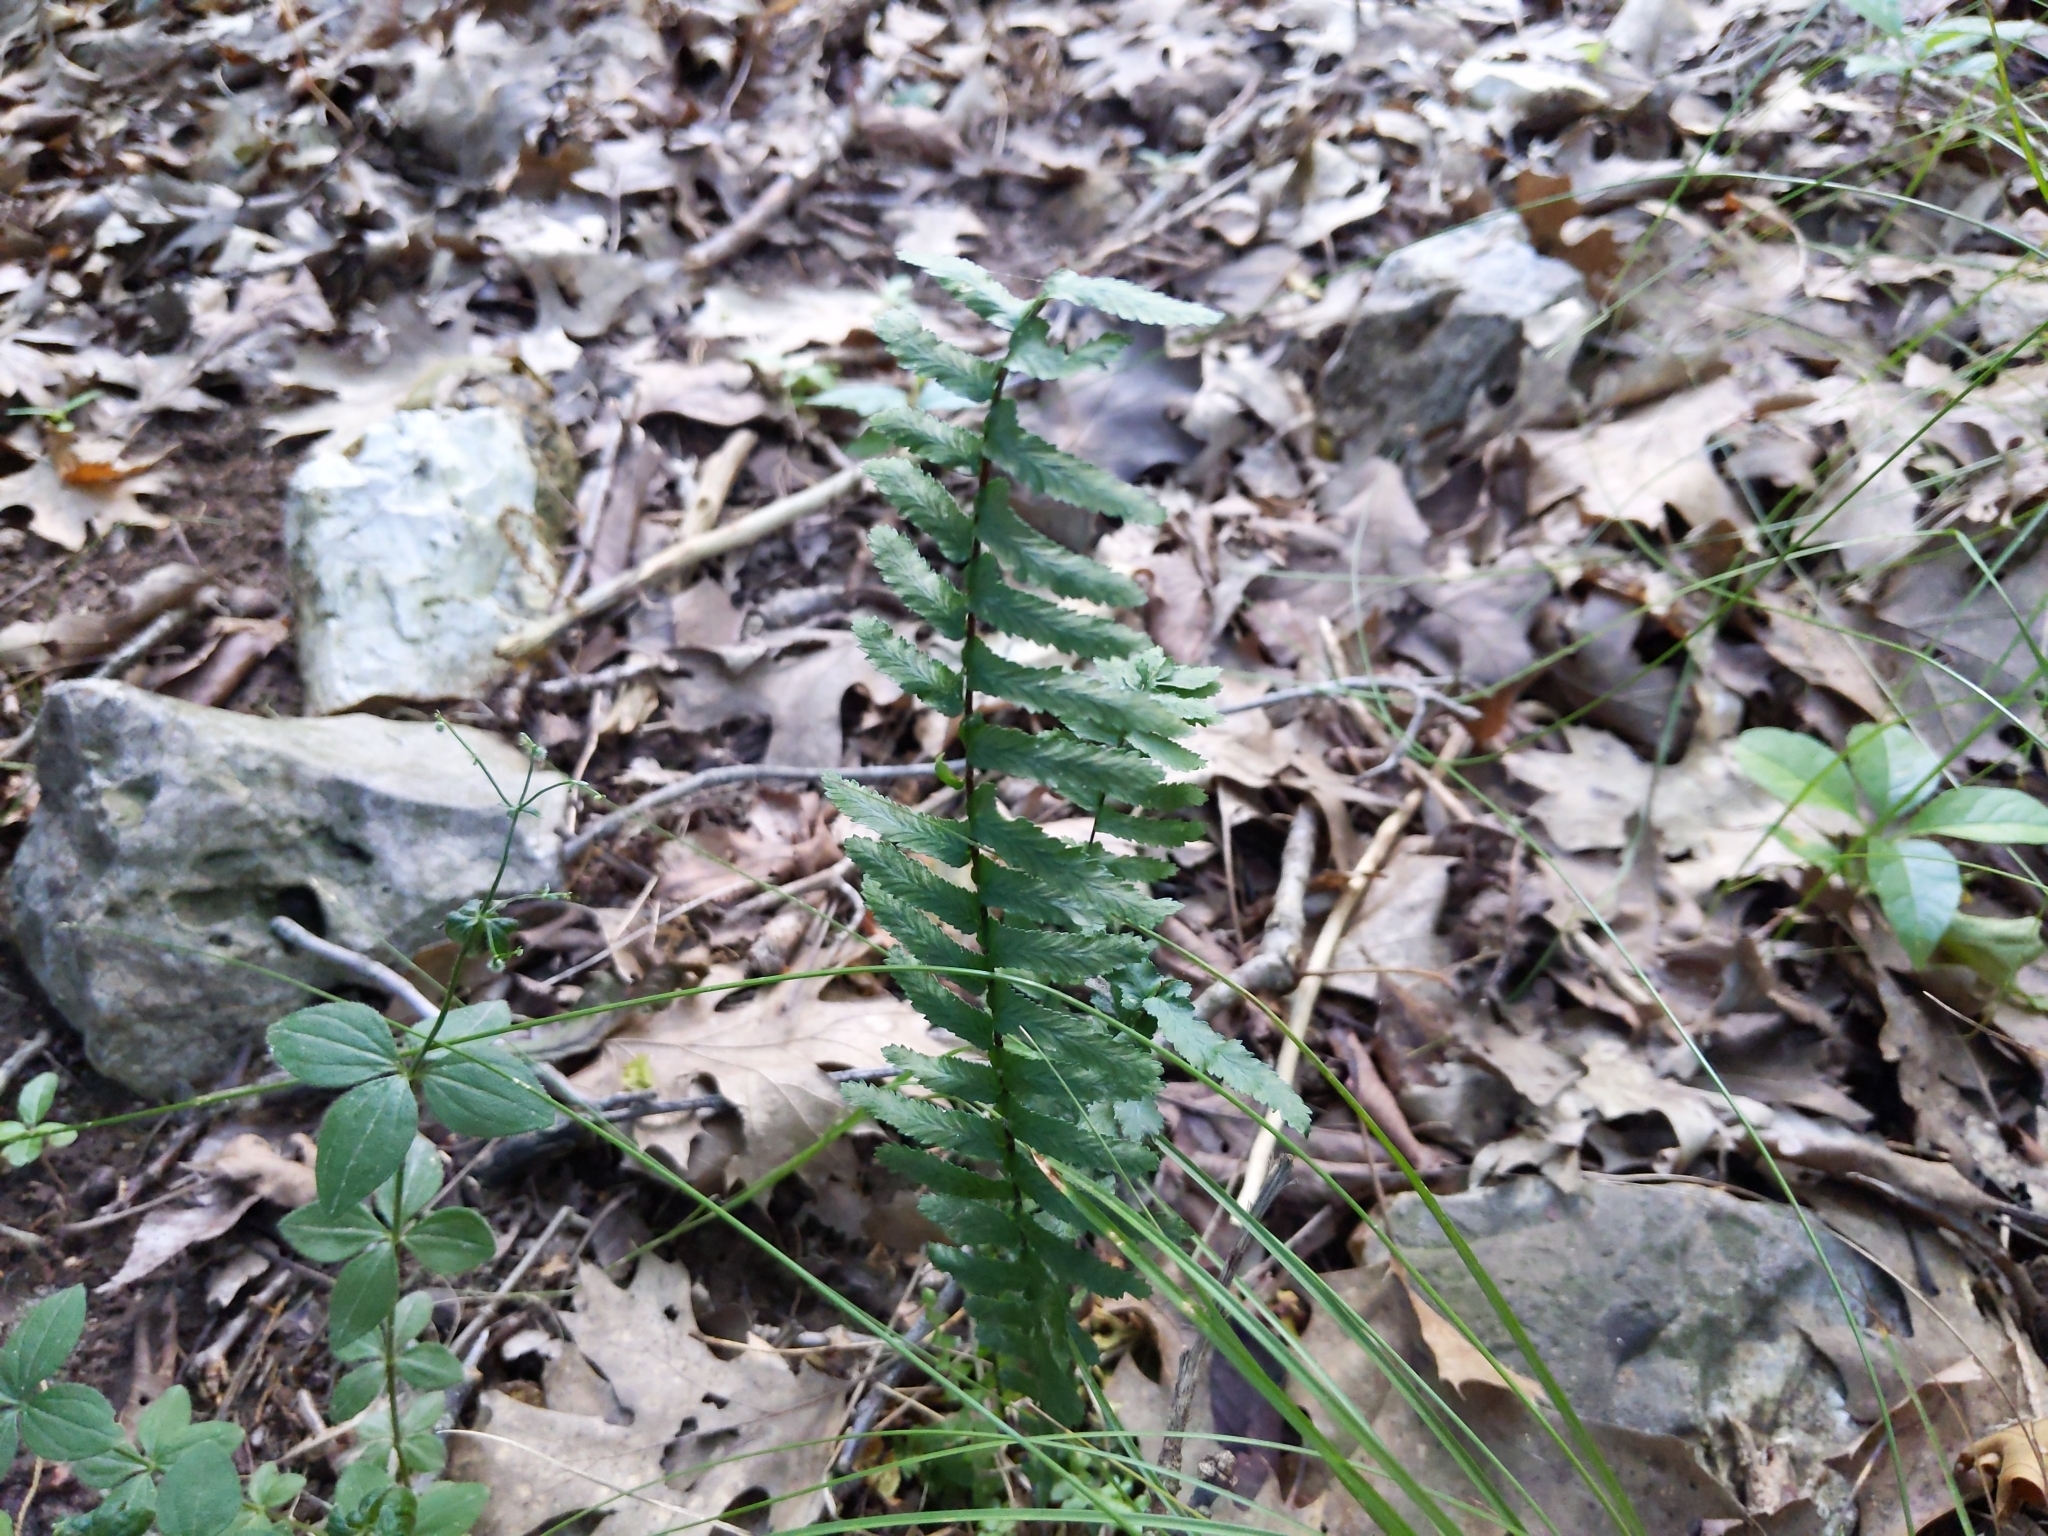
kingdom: Plantae
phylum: Tracheophyta
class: Polypodiopsida
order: Polypodiales
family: Aspleniaceae
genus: Asplenium
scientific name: Asplenium platyneuron
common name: Ebony spleenwort
